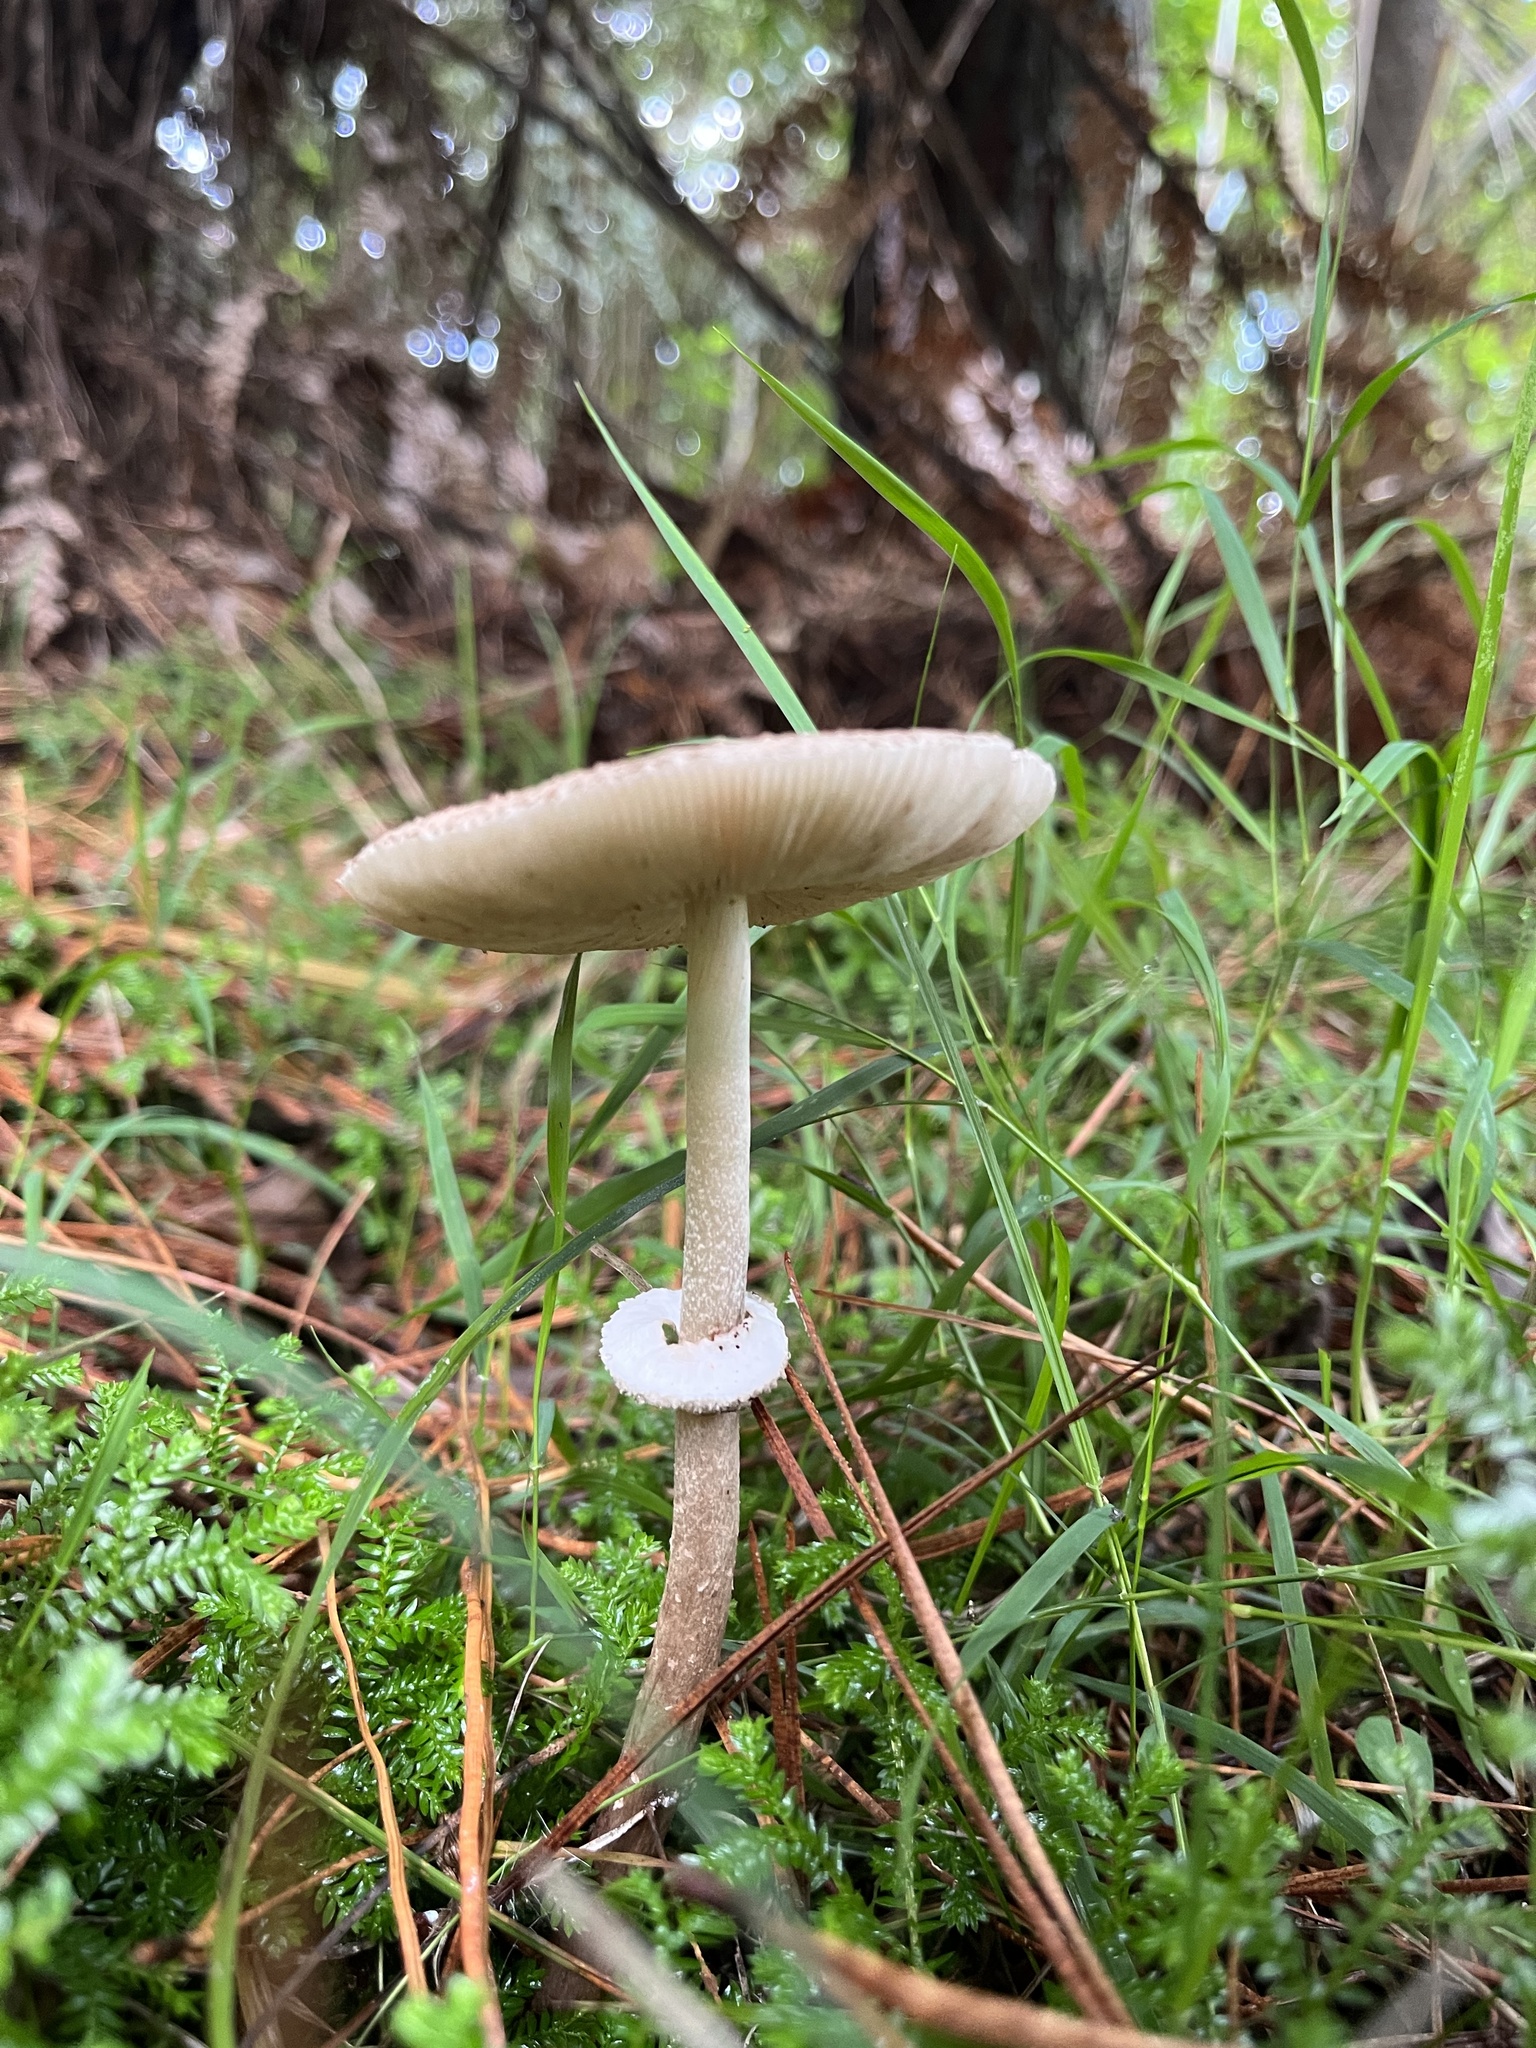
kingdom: Fungi
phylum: Basidiomycota
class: Agaricomycetes
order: Agaricales
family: Agaricaceae
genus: Macrolepiota
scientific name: Macrolepiota clelandii
